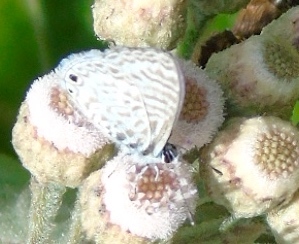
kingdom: Animalia
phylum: Arthropoda
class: Insecta
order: Lepidoptera
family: Lycaenidae
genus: Leptotes
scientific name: Leptotes cassius
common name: Cassius blue
